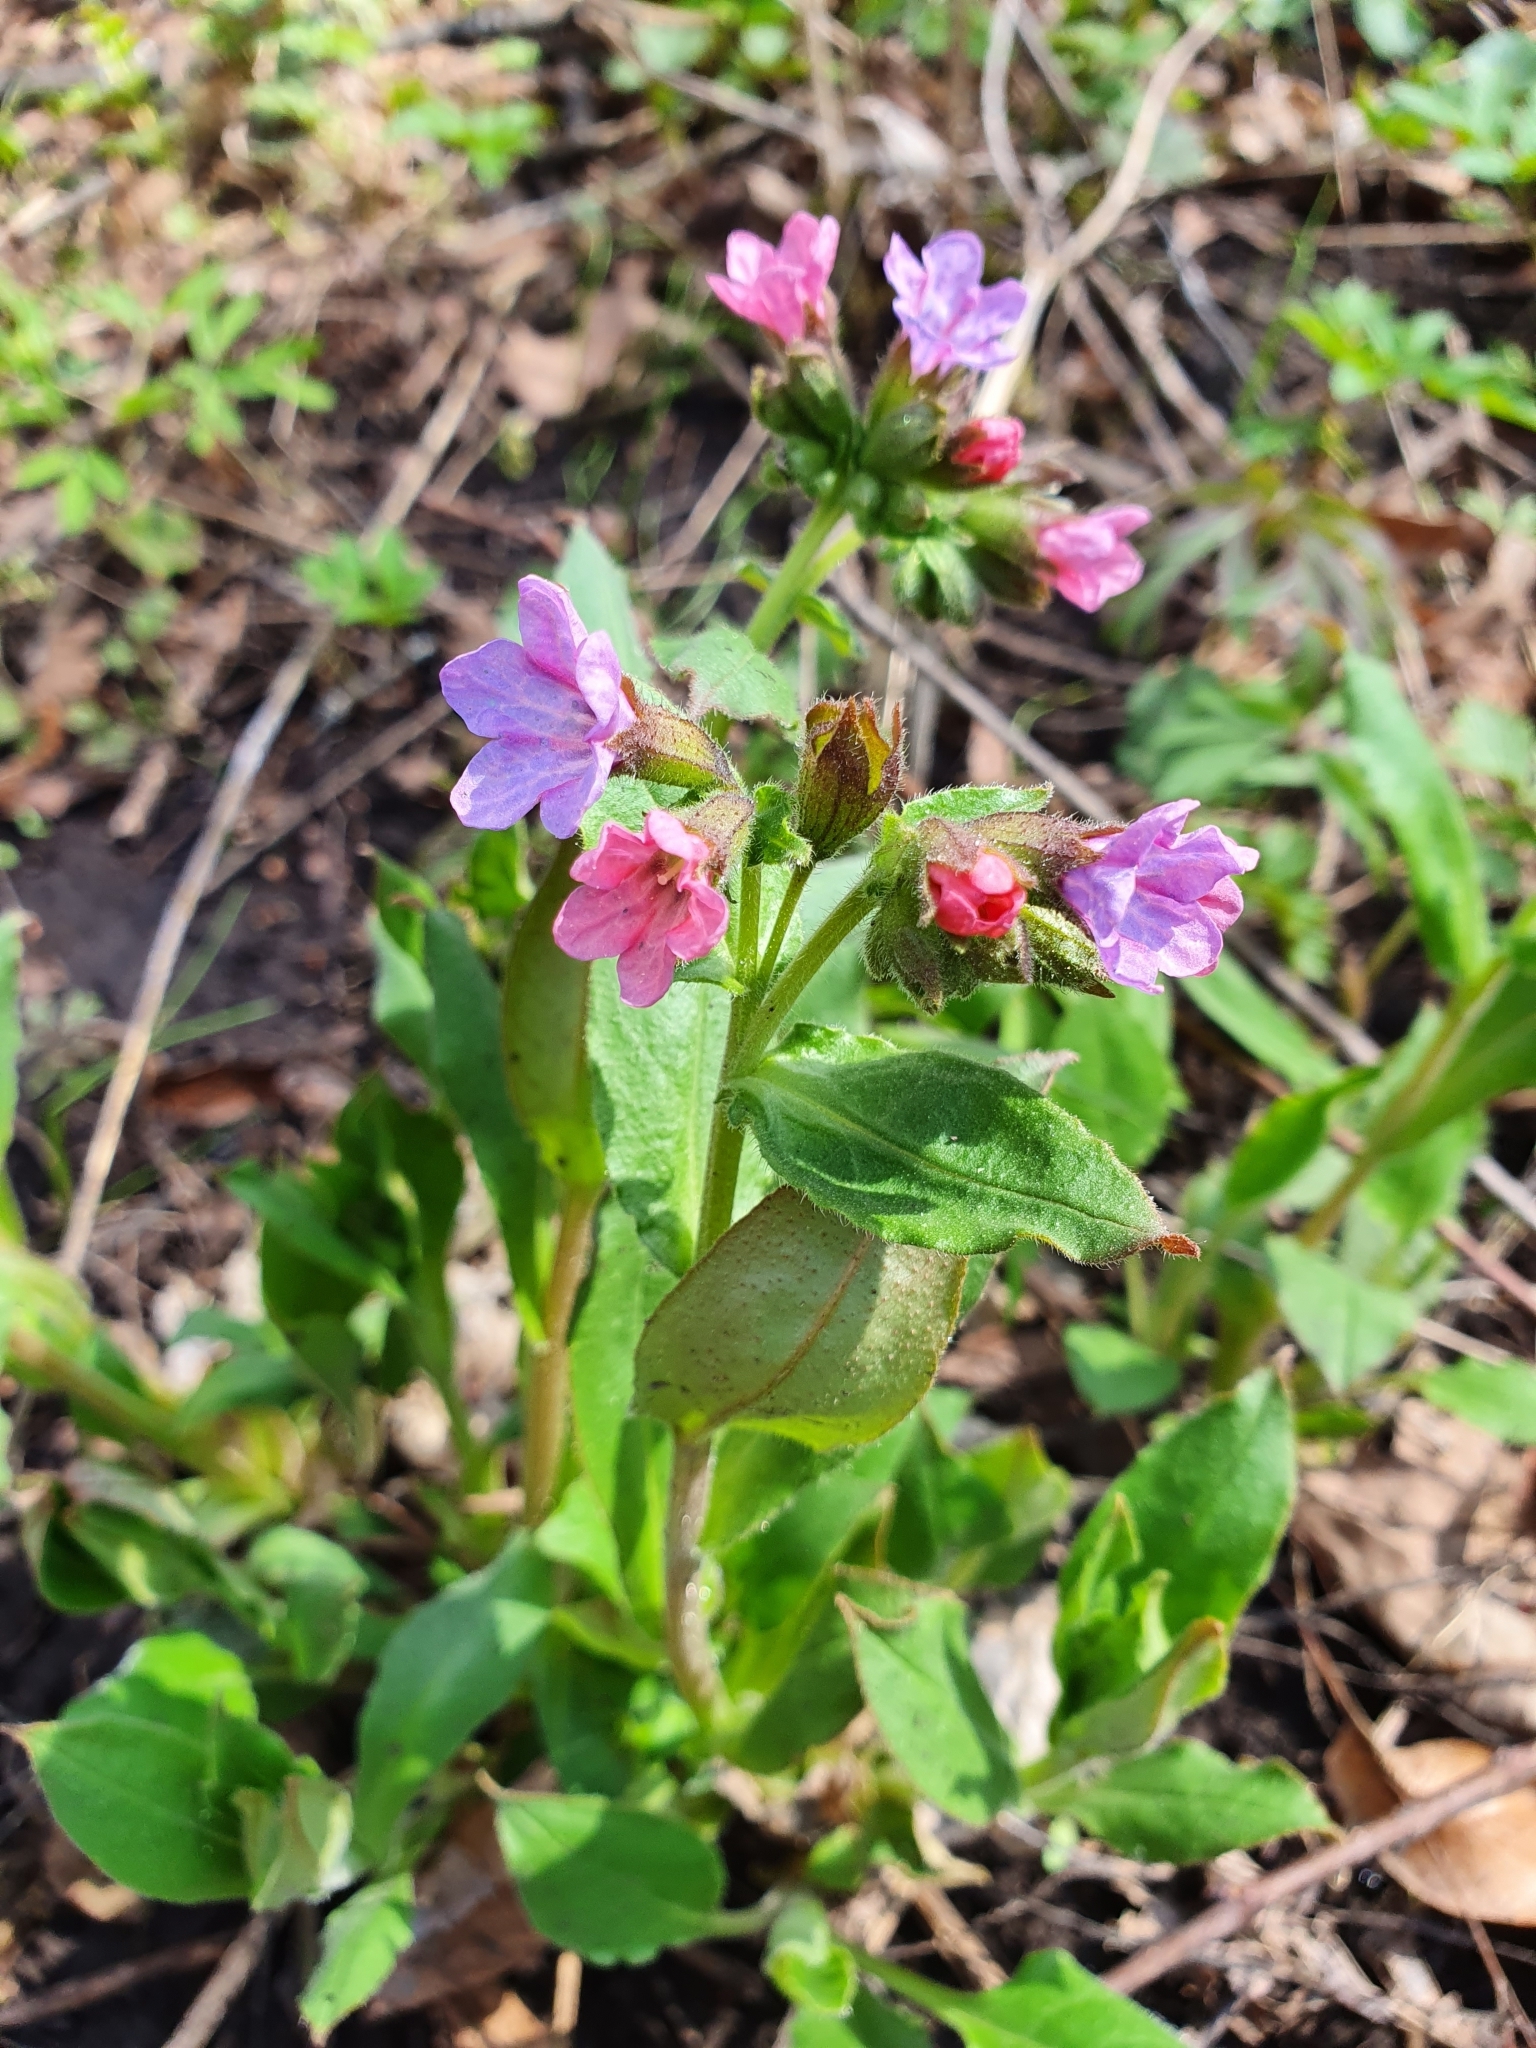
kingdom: Plantae
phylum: Tracheophyta
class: Magnoliopsida
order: Boraginales
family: Boraginaceae
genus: Pulmonaria
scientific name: Pulmonaria obscura
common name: Suffolk lungwort
